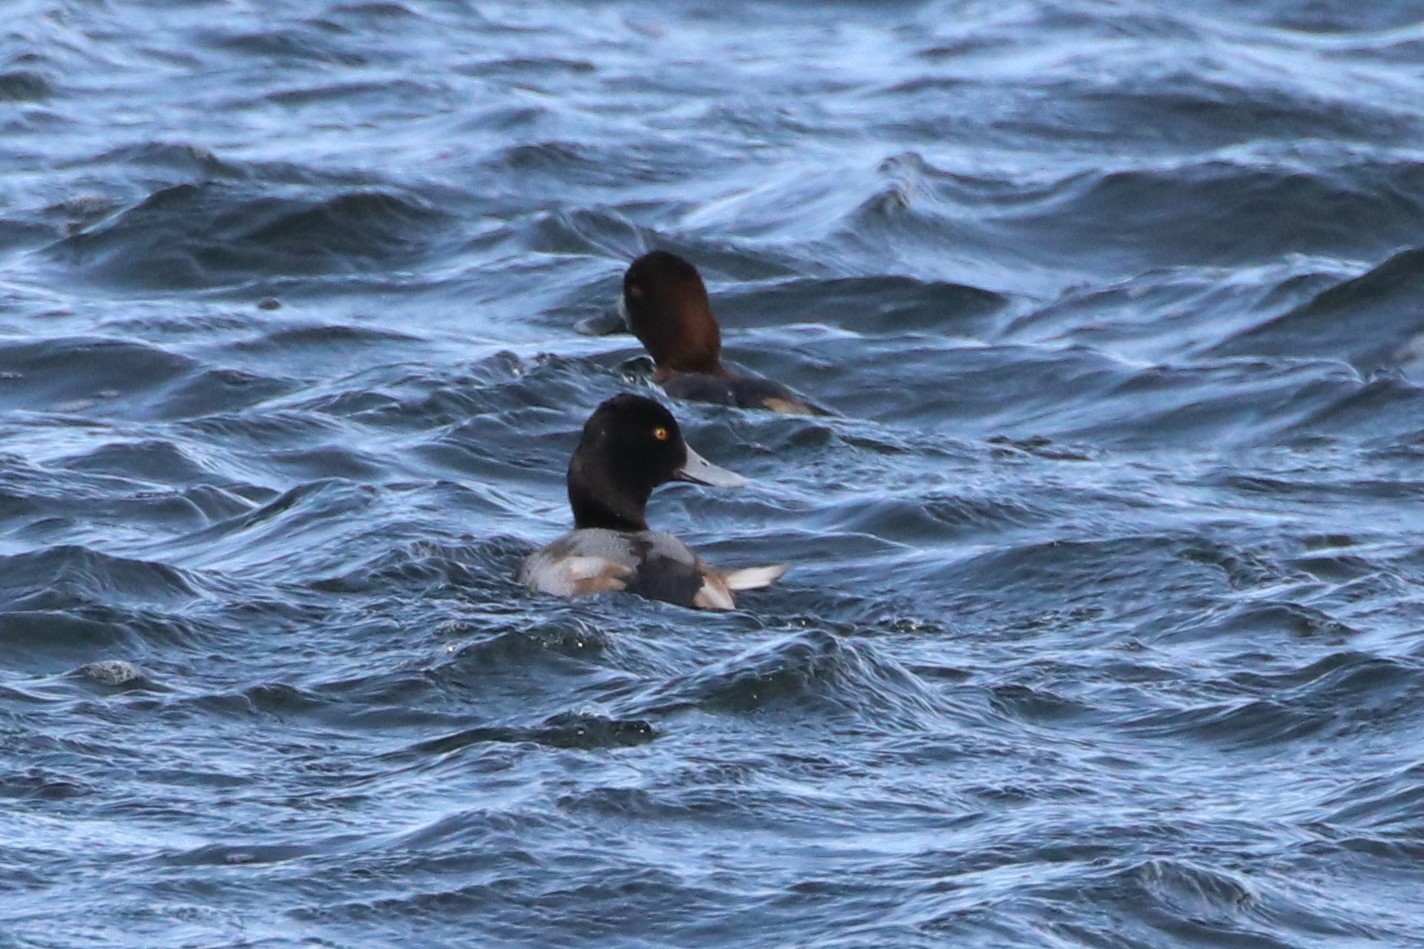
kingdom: Animalia
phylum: Chordata
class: Aves
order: Anseriformes
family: Anatidae
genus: Aythya
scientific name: Aythya affinis
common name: Lesser scaup
